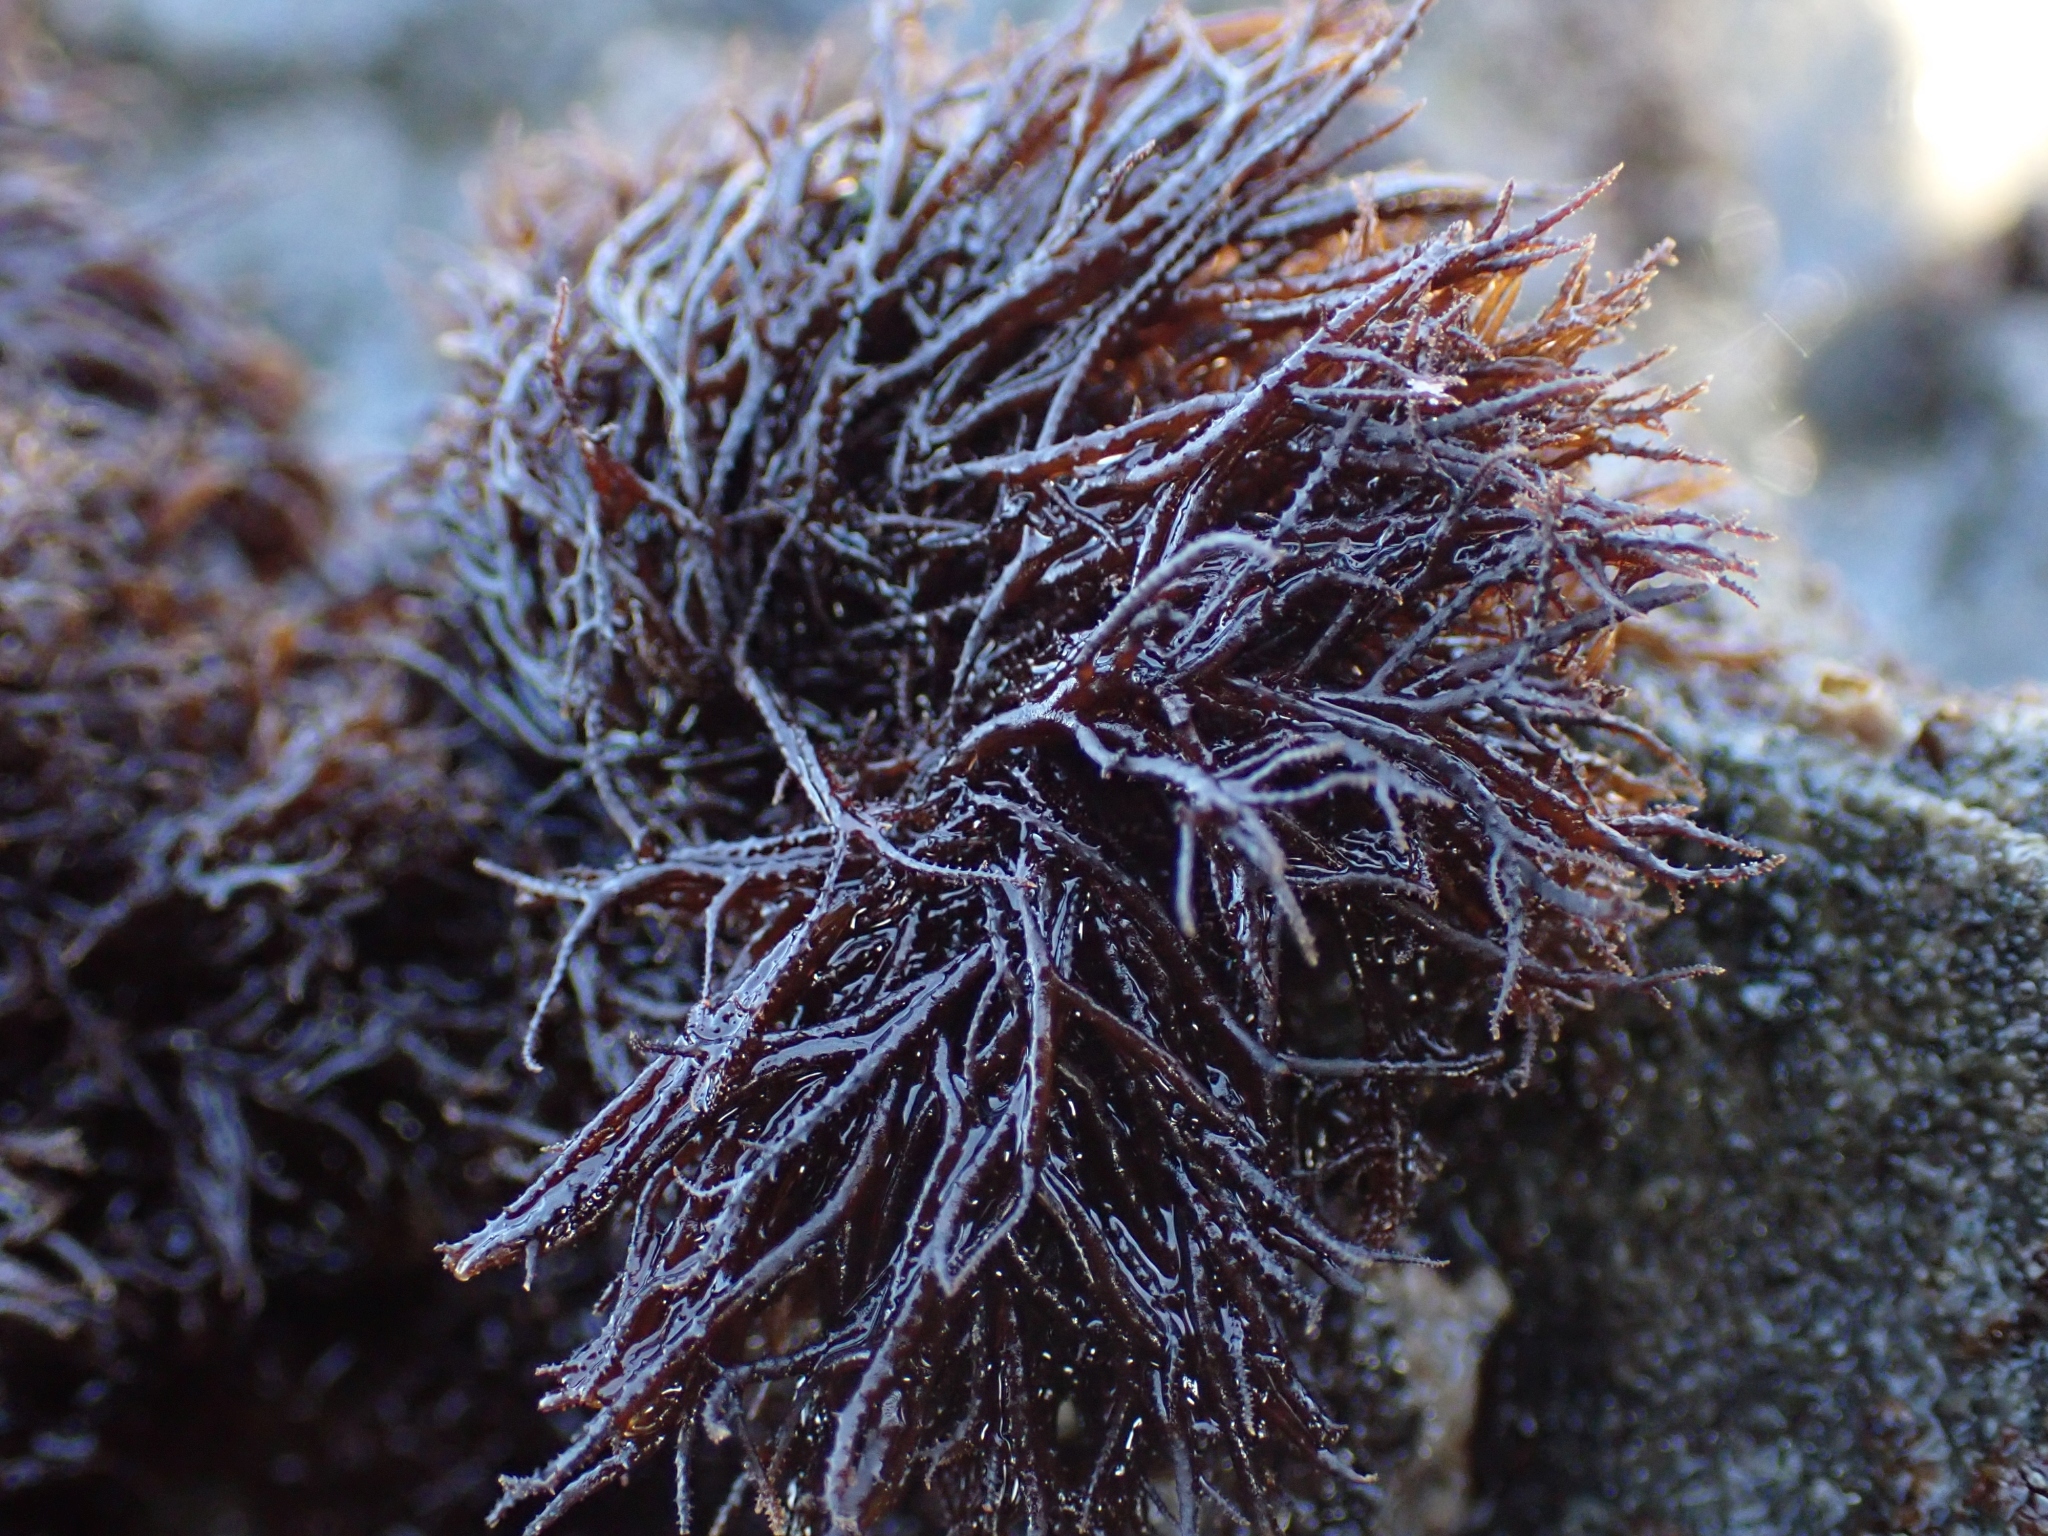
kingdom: Plantae
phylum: Rhodophyta
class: Florideophyceae
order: Gigartinales
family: Endocladiaceae
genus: Endocladia
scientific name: Endocladia muricata
